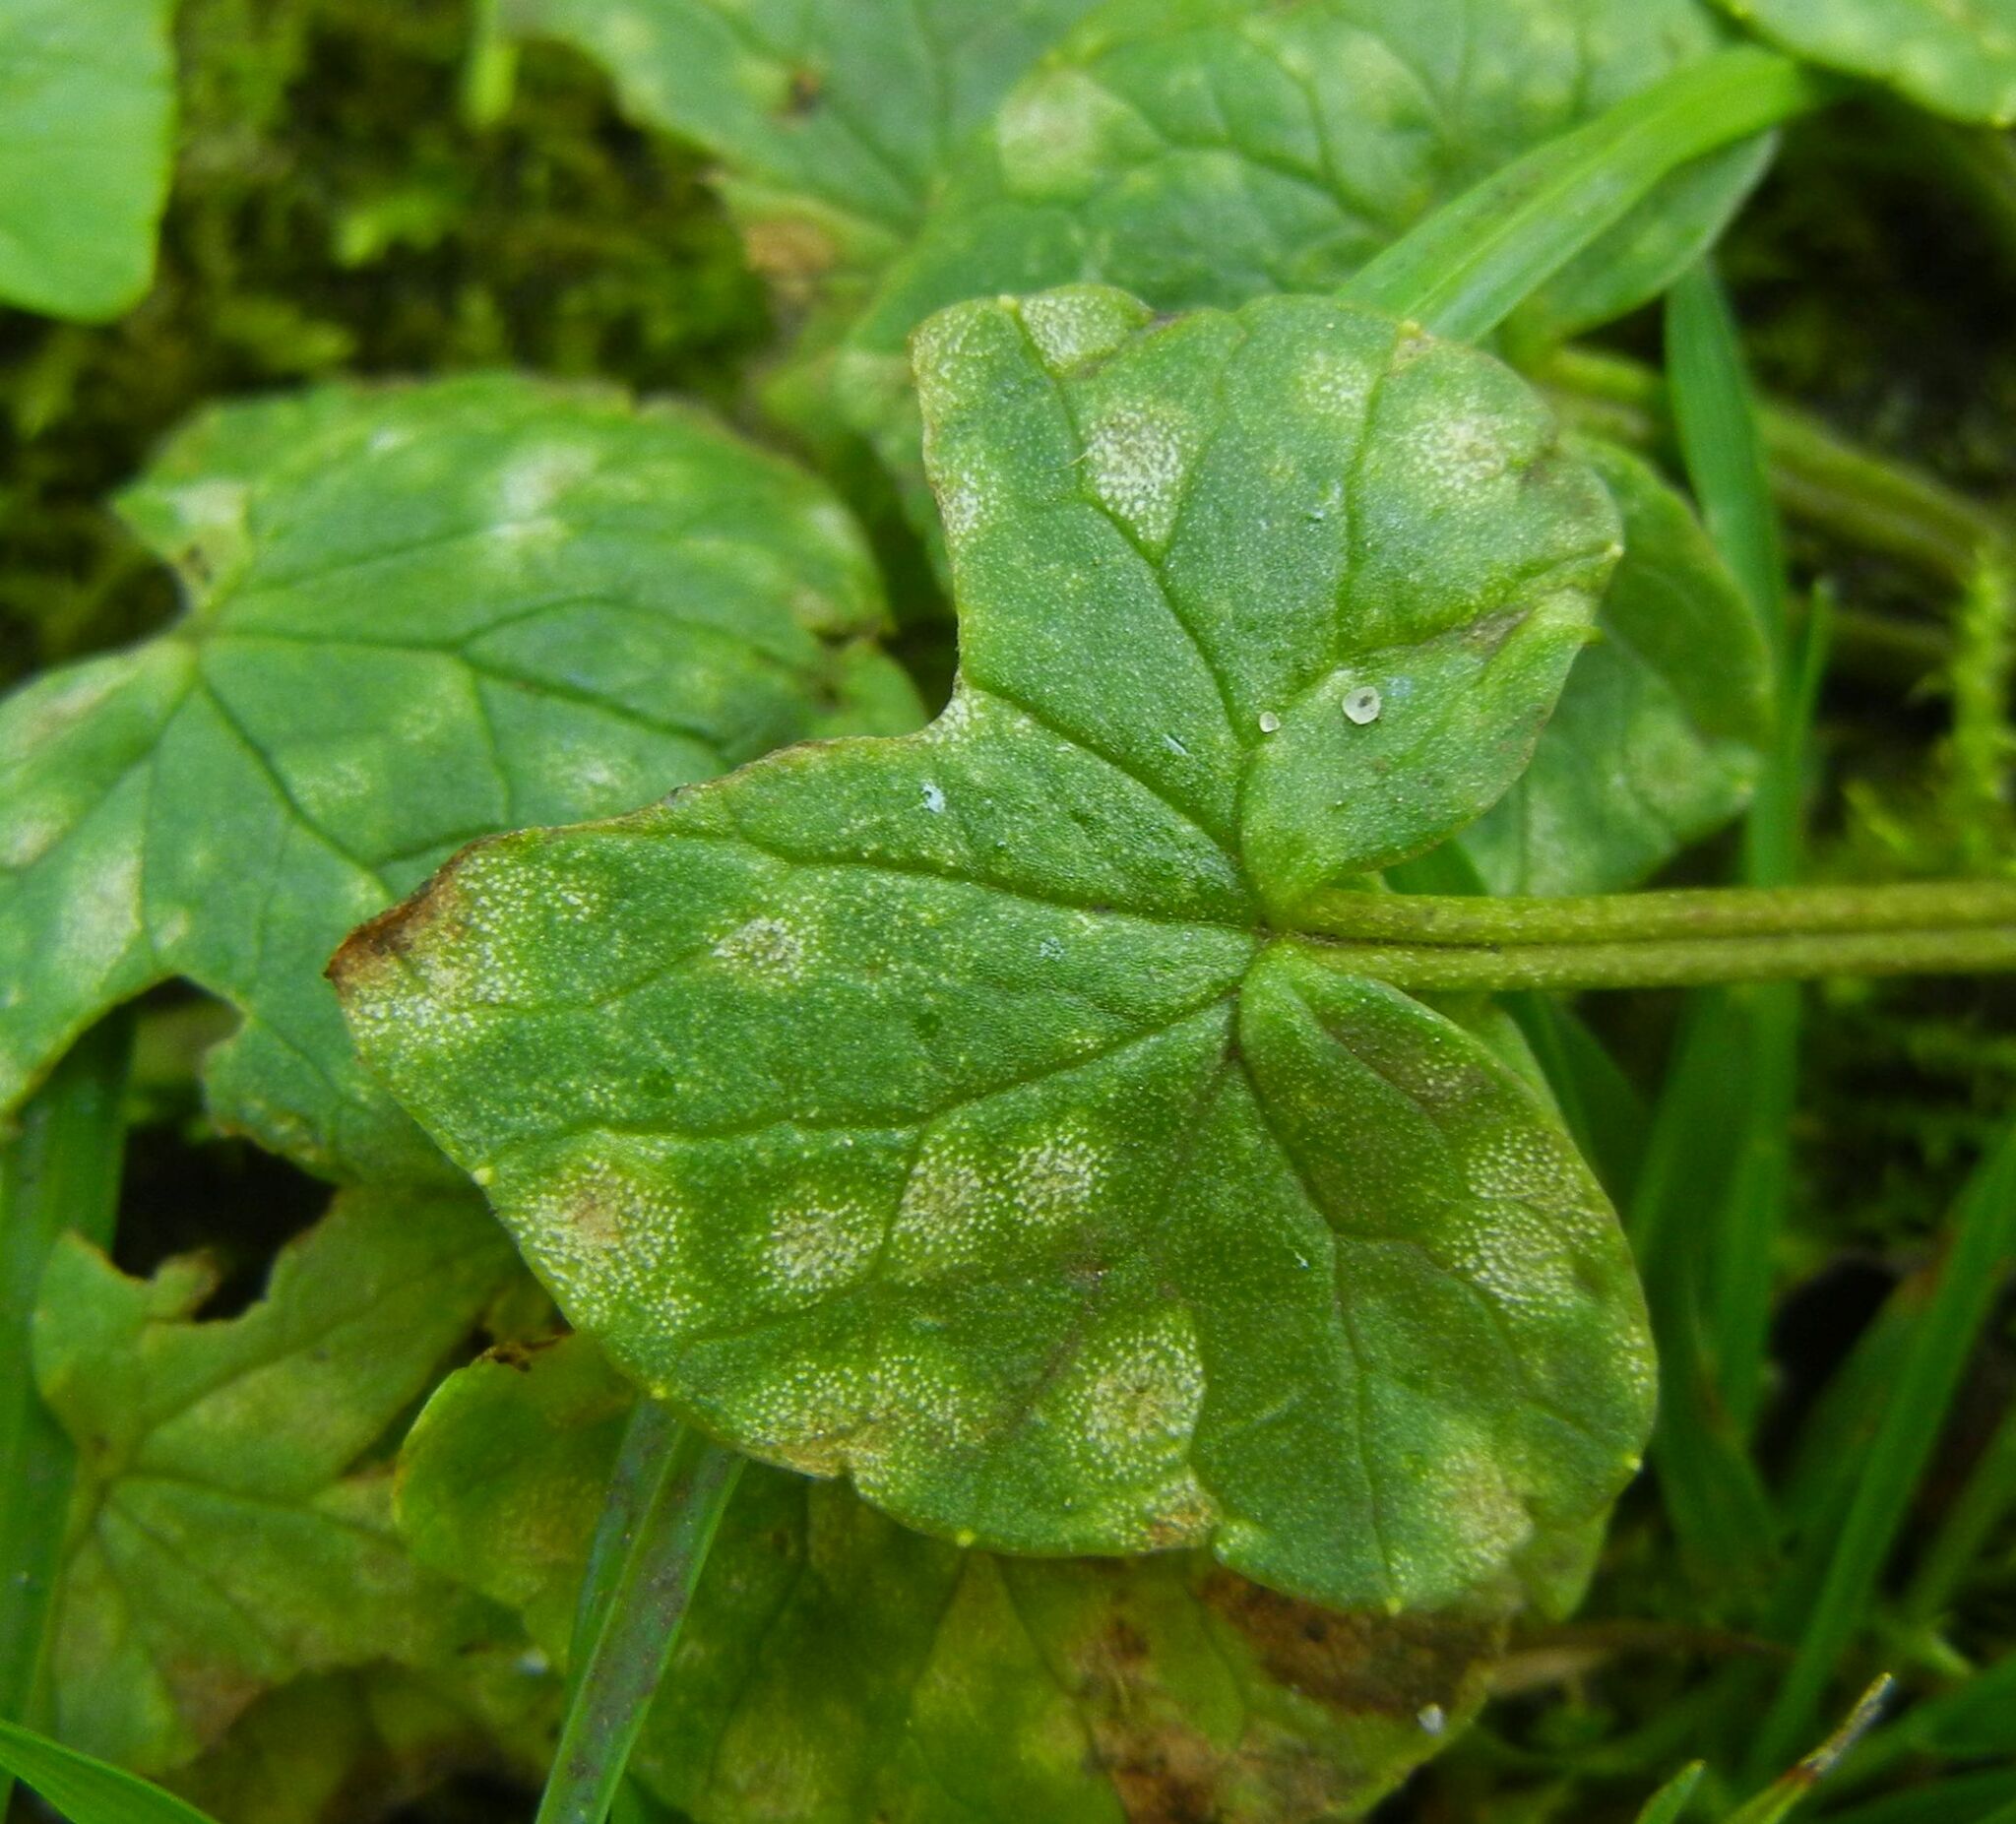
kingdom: Fungi
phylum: Basidiomycota
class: Exobasidiomycetes
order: Entylomatales
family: Entylomataceae
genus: Entyloma
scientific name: Entyloma ficariae
